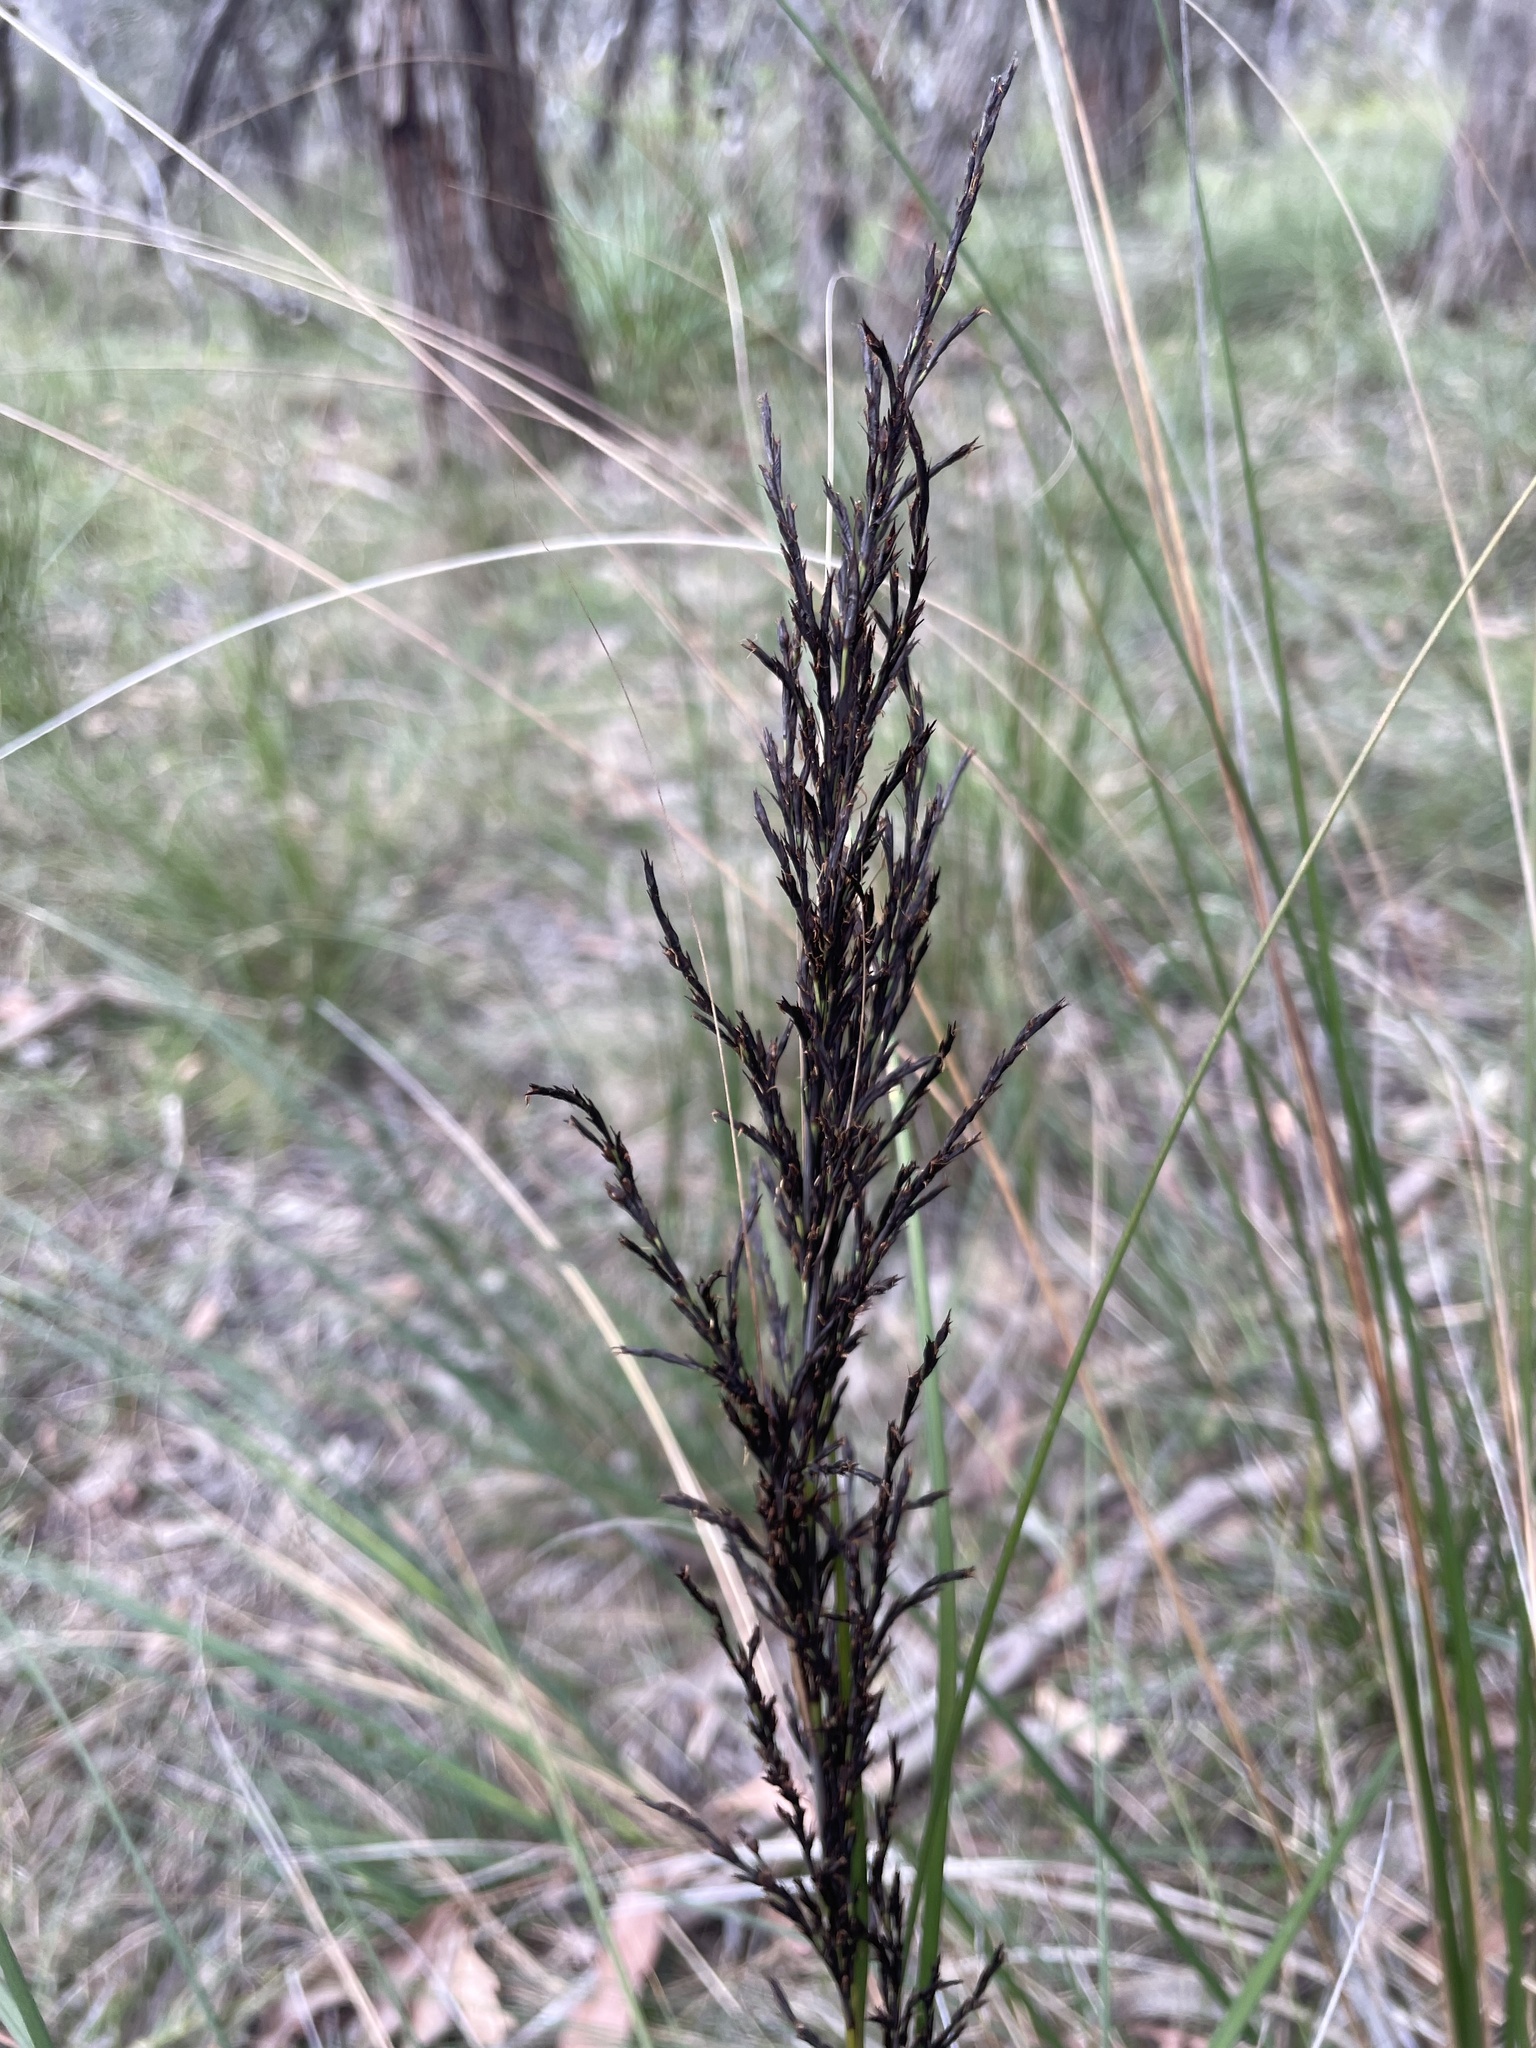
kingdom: Plantae
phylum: Tracheophyta
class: Liliopsida
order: Poales
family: Cyperaceae
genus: Gahnia
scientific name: Gahnia radula
